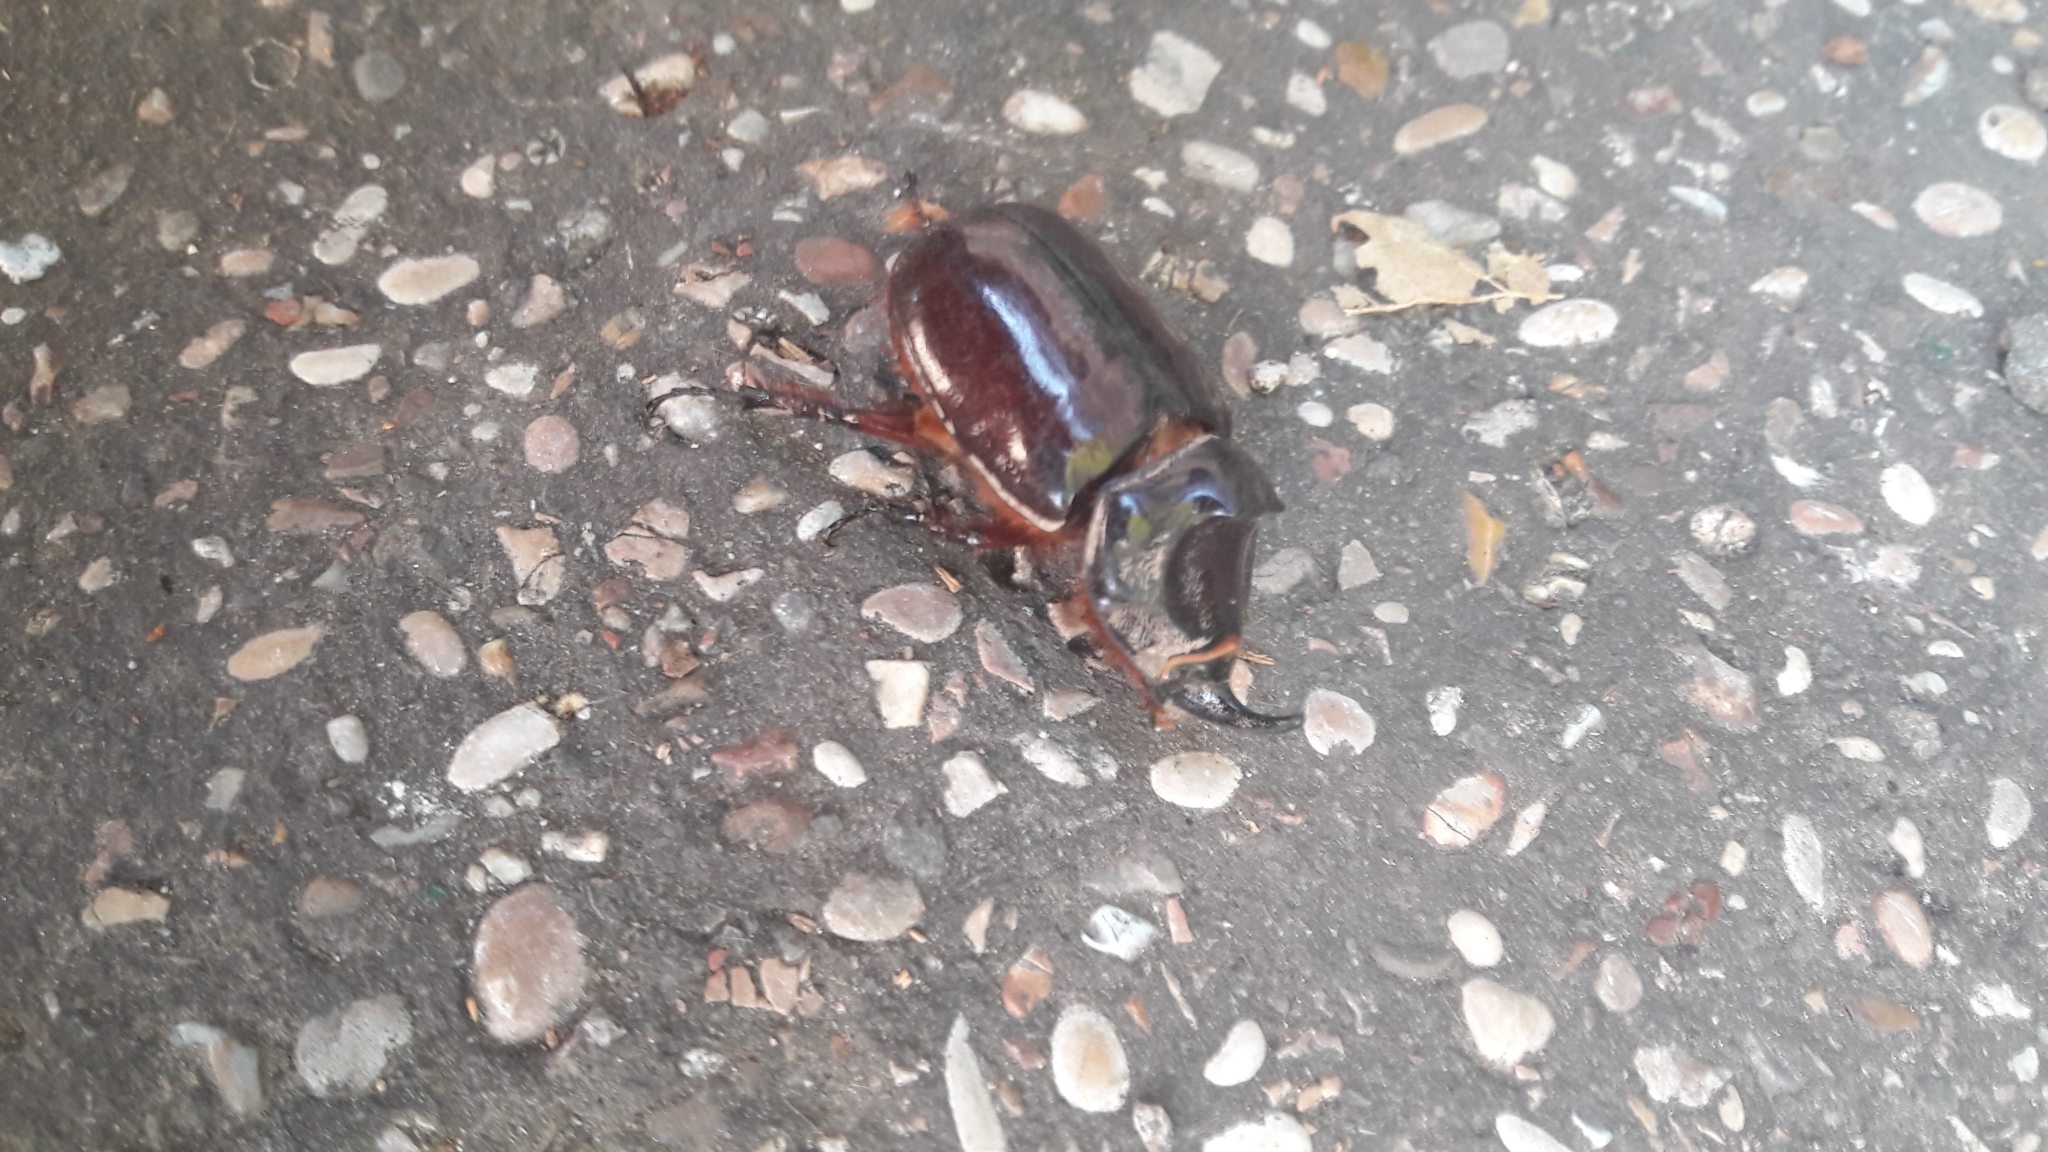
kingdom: Animalia
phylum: Arthropoda
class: Insecta
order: Coleoptera
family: Scarabaeidae
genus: Oryctes
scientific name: Oryctes nasicornis
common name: European rhinoceros beetle
